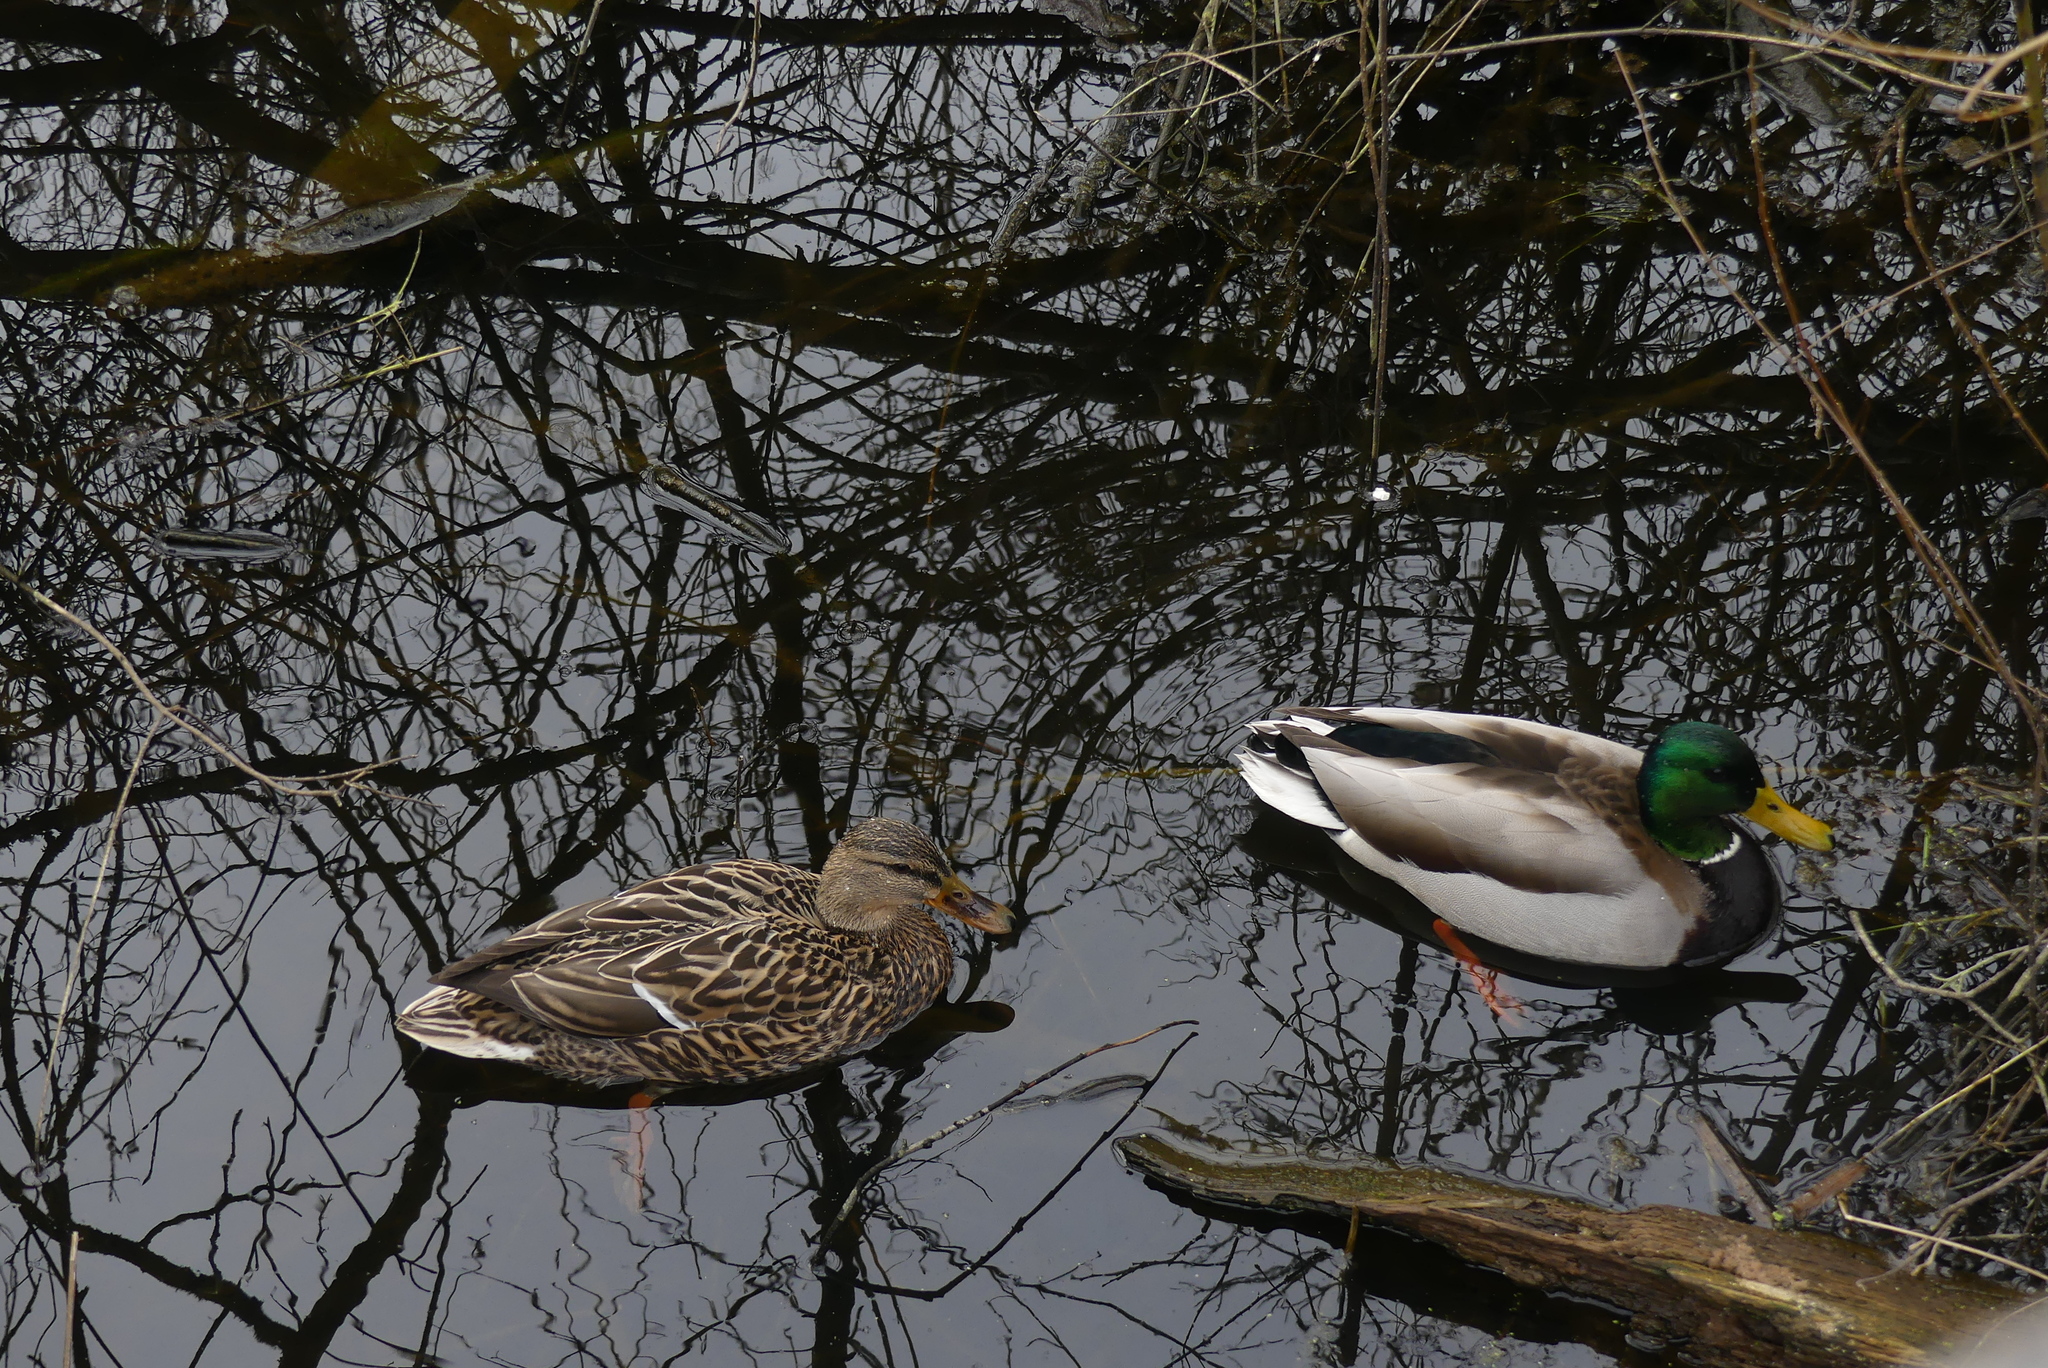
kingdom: Animalia
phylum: Chordata
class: Aves
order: Anseriformes
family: Anatidae
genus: Anas
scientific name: Anas platyrhynchos
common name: Mallard
